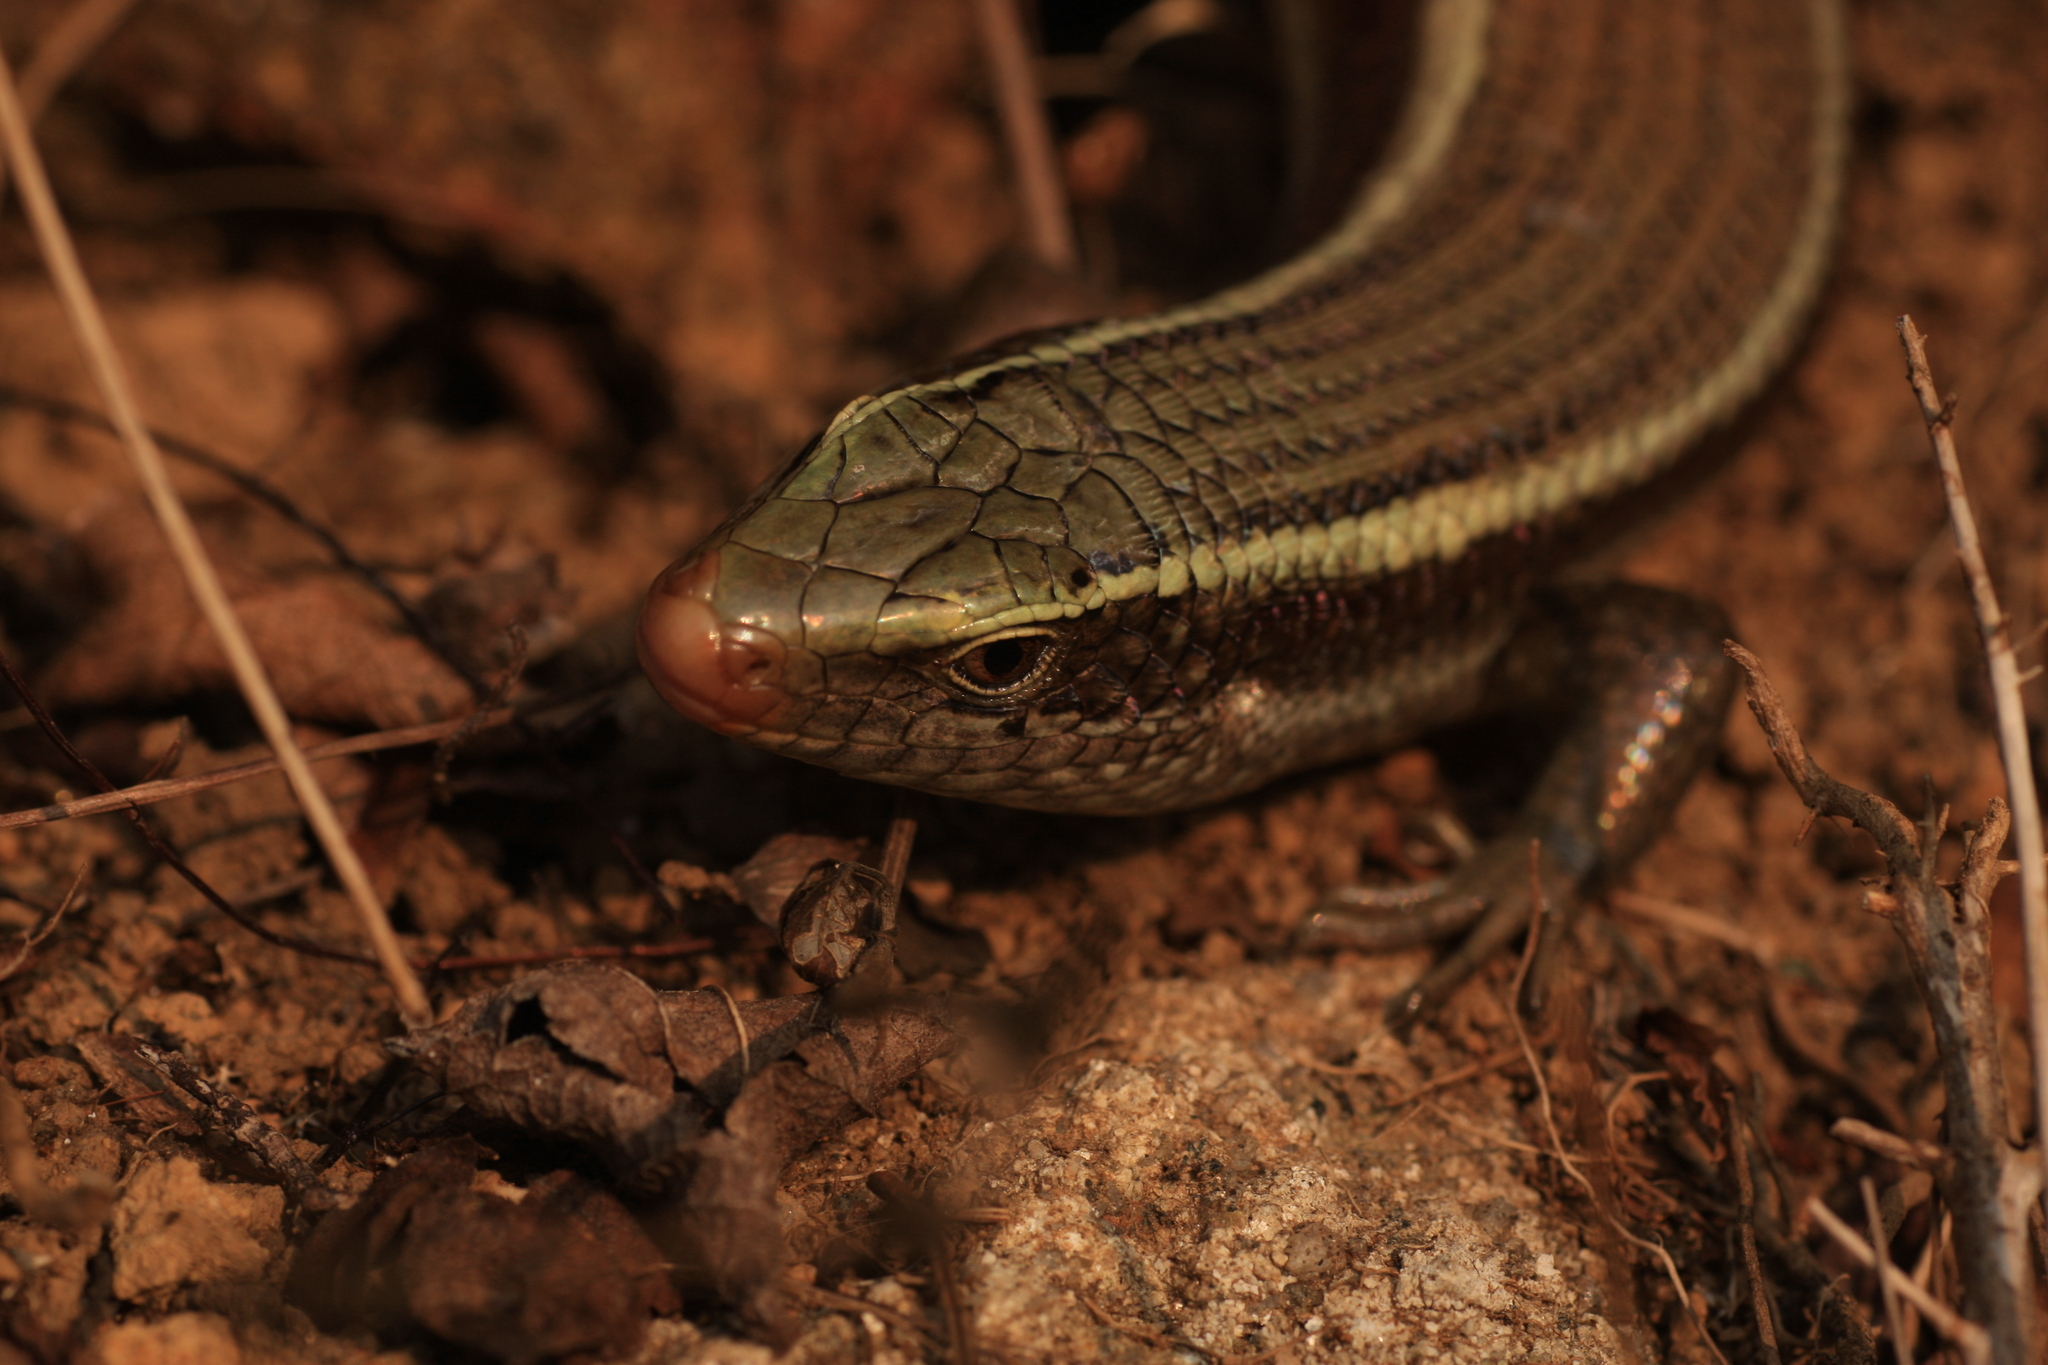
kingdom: Animalia
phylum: Chordata
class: Squamata
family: Scincidae
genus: Eutropis
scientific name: Eutropis carinata
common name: Keeled indian mabuya
